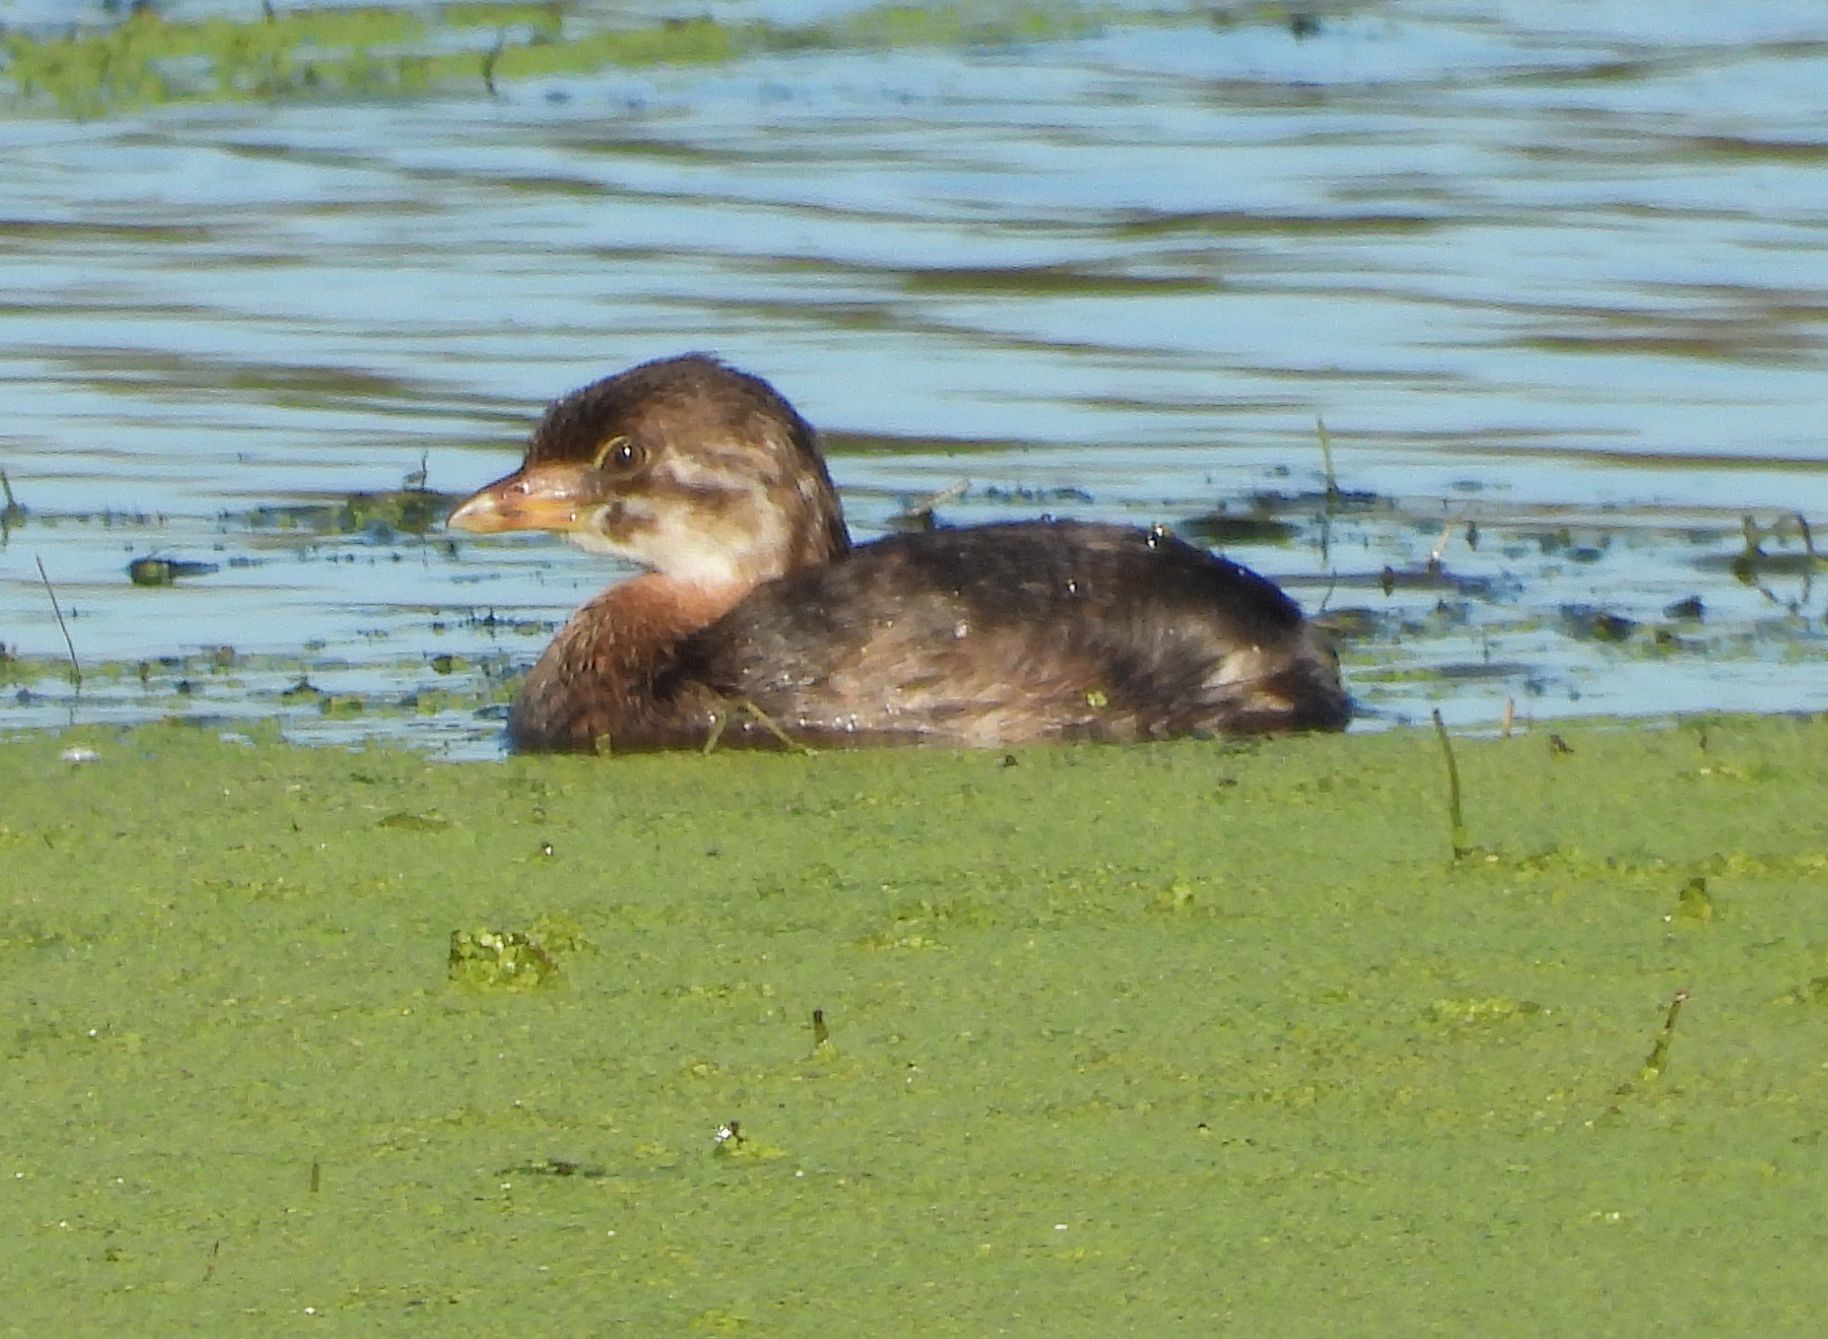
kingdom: Animalia
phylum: Chordata
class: Aves
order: Podicipediformes
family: Podicipedidae
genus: Podilymbus
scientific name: Podilymbus podiceps
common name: Pied-billed grebe
